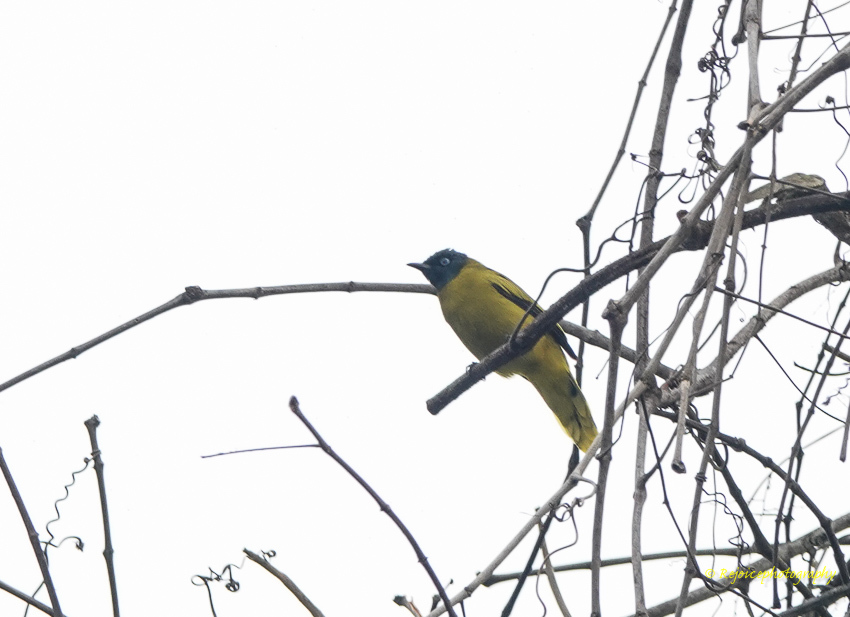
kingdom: Animalia
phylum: Chordata
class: Aves
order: Passeriformes
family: Pycnonotidae
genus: Microtarsus
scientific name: Microtarsus
